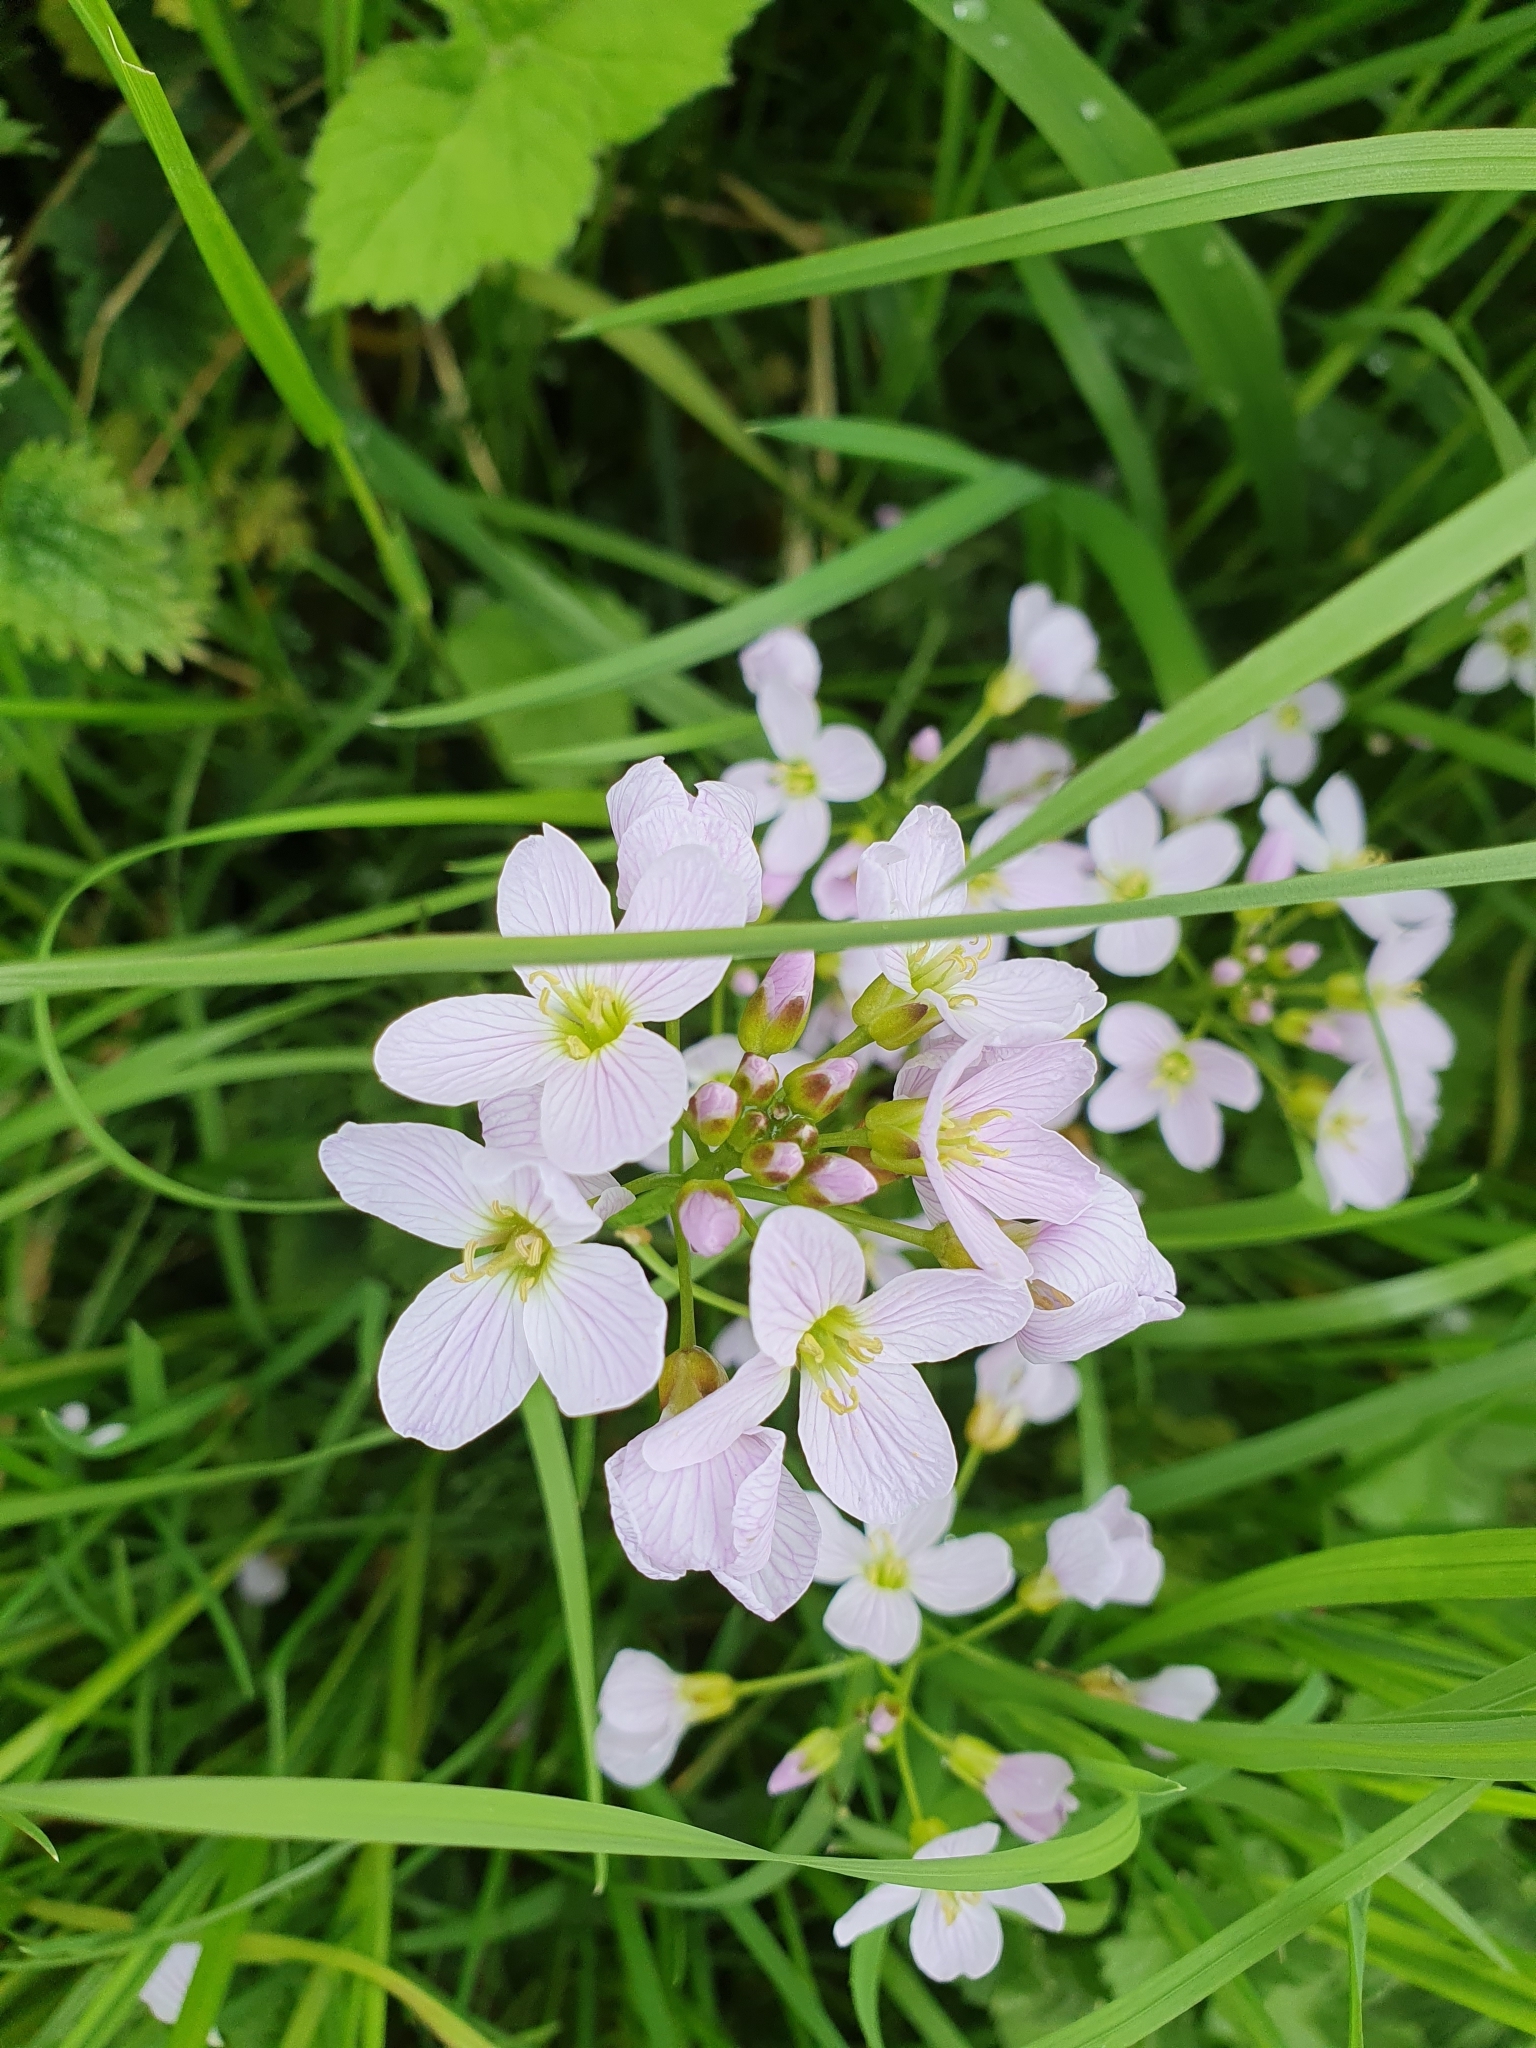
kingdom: Plantae
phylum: Tracheophyta
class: Magnoliopsida
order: Brassicales
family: Brassicaceae
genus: Cardamine
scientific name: Cardamine pratensis
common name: Cuckoo flower
